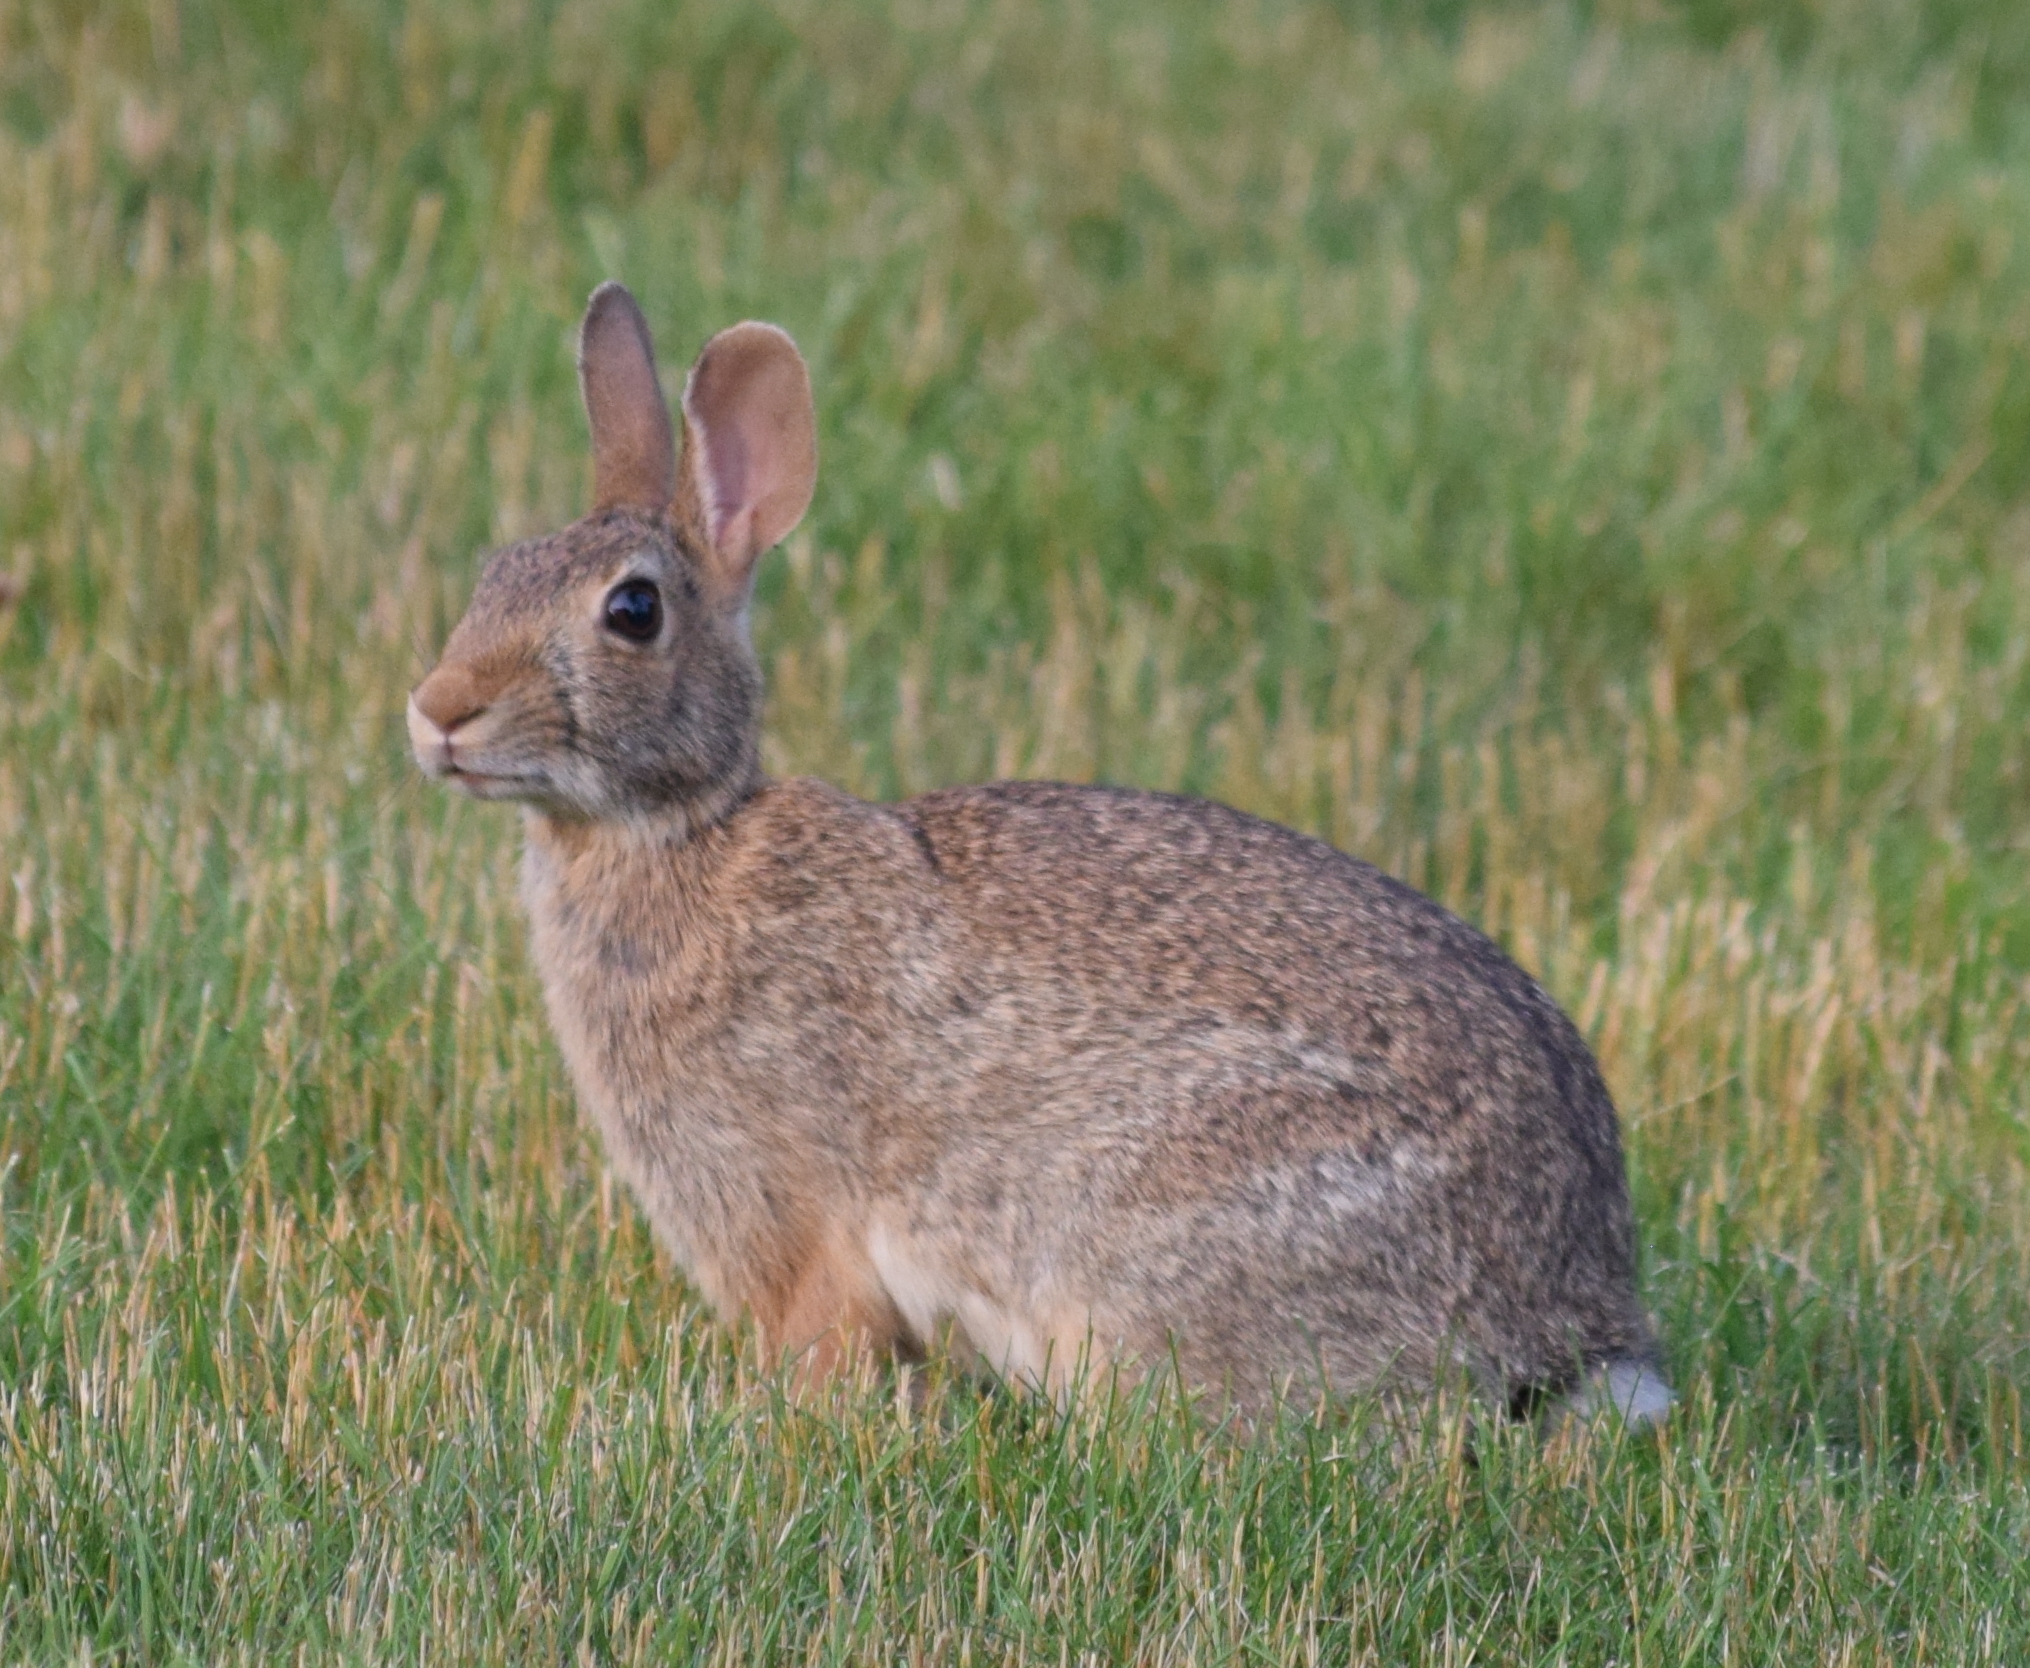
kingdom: Animalia
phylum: Chordata
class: Mammalia
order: Lagomorpha
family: Leporidae
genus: Sylvilagus
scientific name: Sylvilagus floridanus
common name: Eastern cottontail
